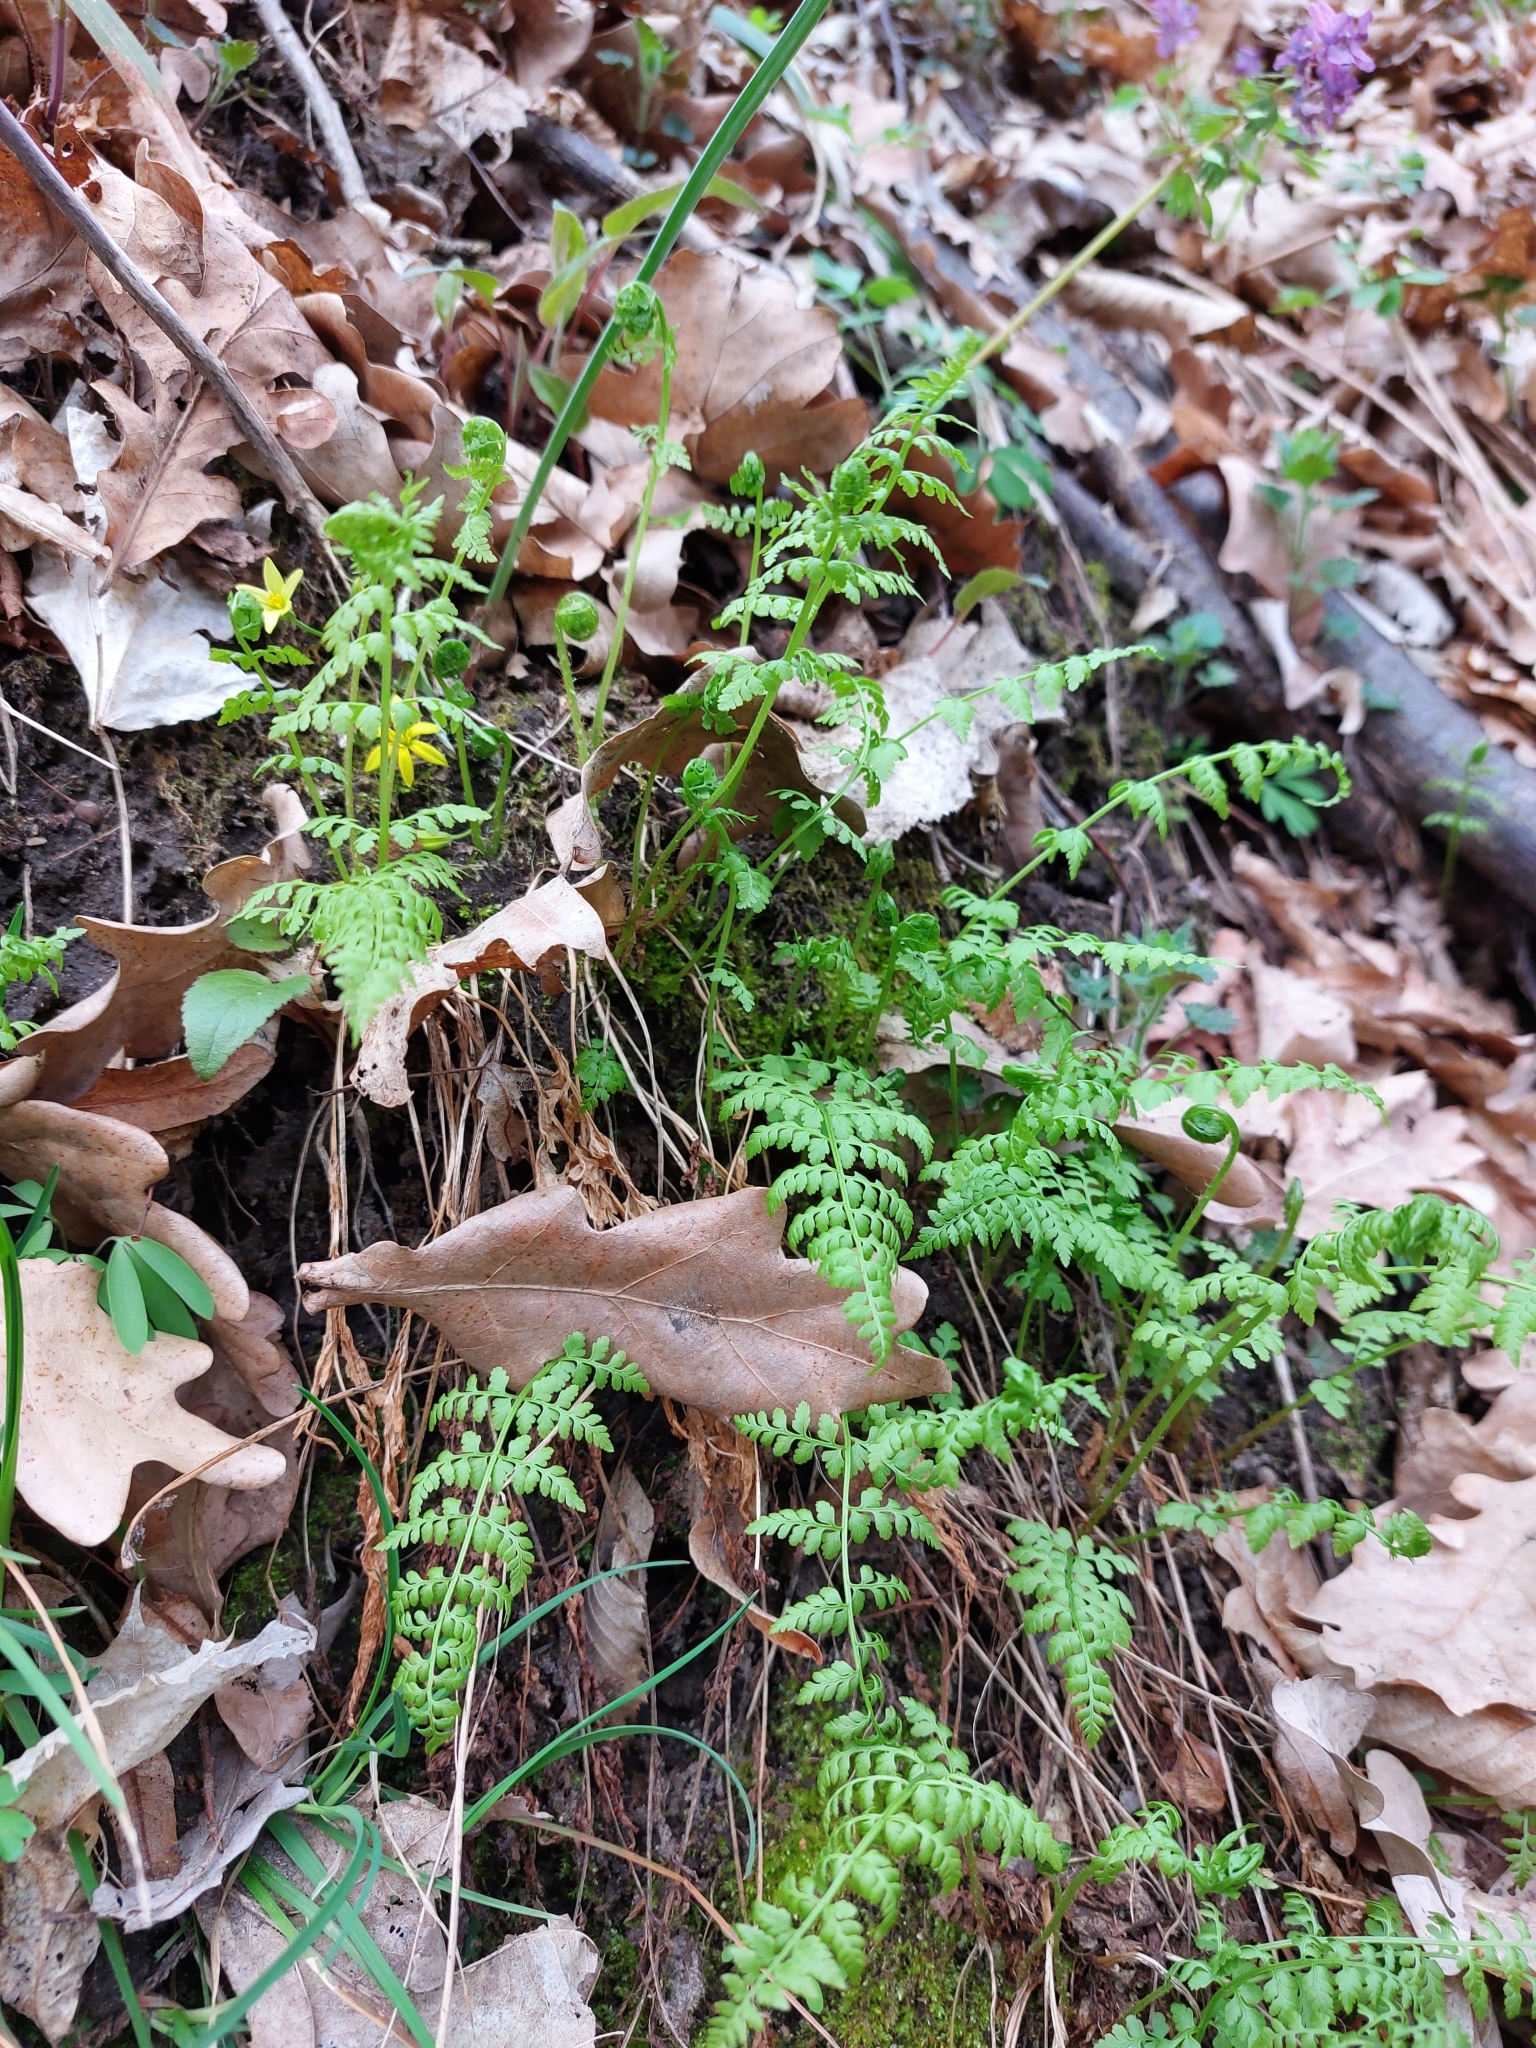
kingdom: Plantae
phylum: Tracheophyta
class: Polypodiopsida
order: Polypodiales
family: Cystopteridaceae
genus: Cystopteris
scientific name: Cystopteris fragilis
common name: Brittle bladder fern
